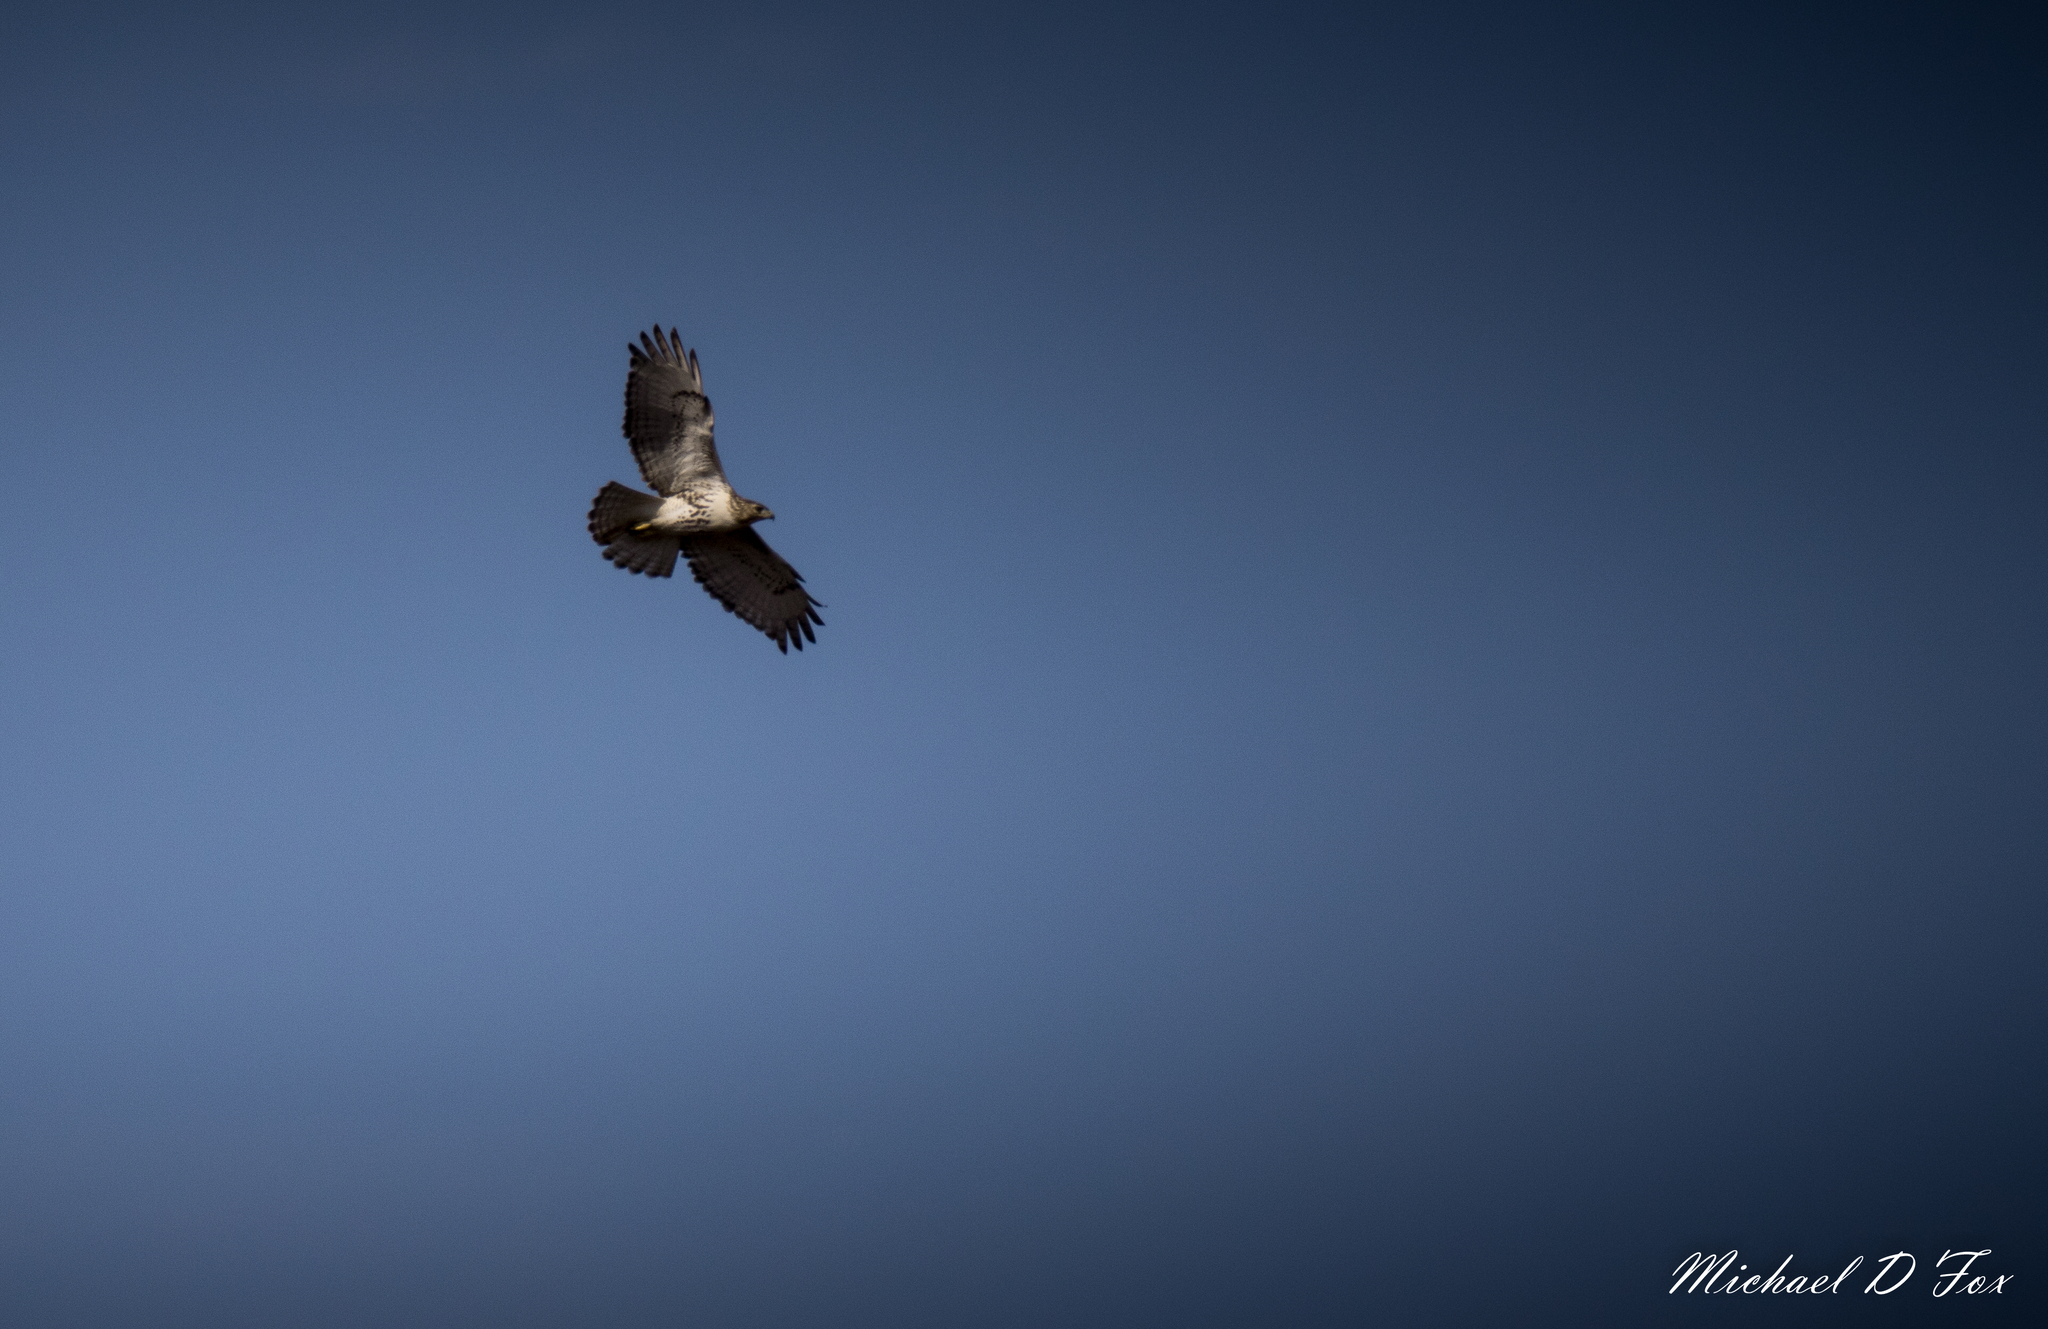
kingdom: Animalia
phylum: Chordata
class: Aves
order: Accipitriformes
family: Accipitridae
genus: Buteo
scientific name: Buteo jamaicensis
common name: Red-tailed hawk
